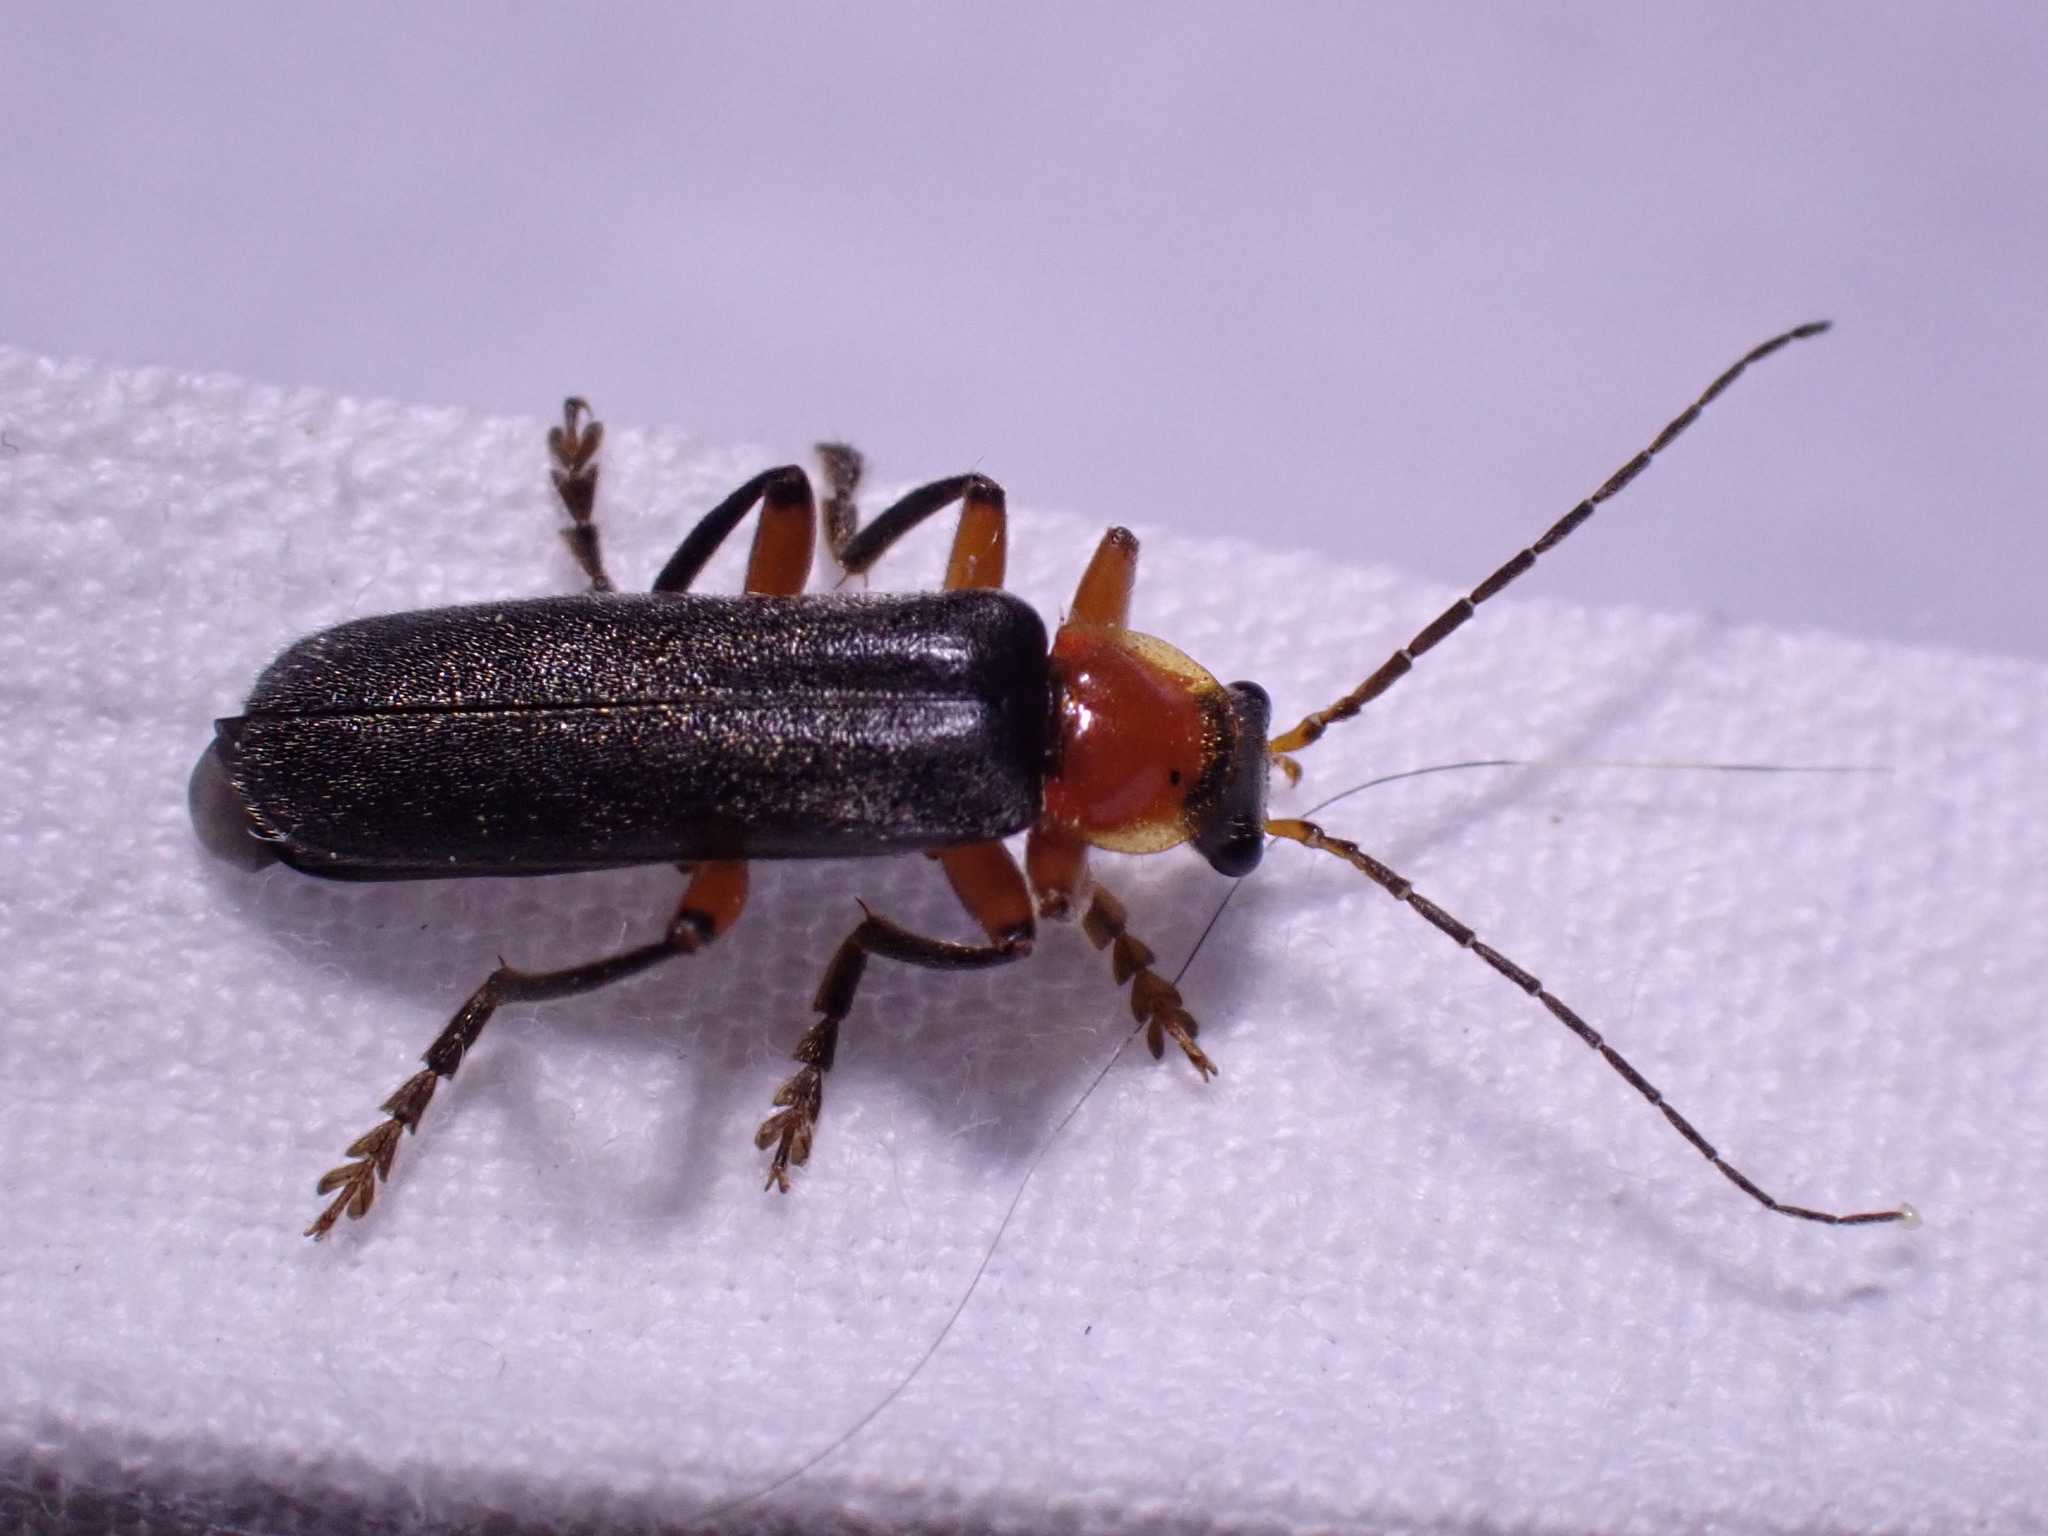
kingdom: Animalia
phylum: Arthropoda
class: Insecta
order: Coleoptera
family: Cantharidae
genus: Cantharis
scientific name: Cantharis pellucida
